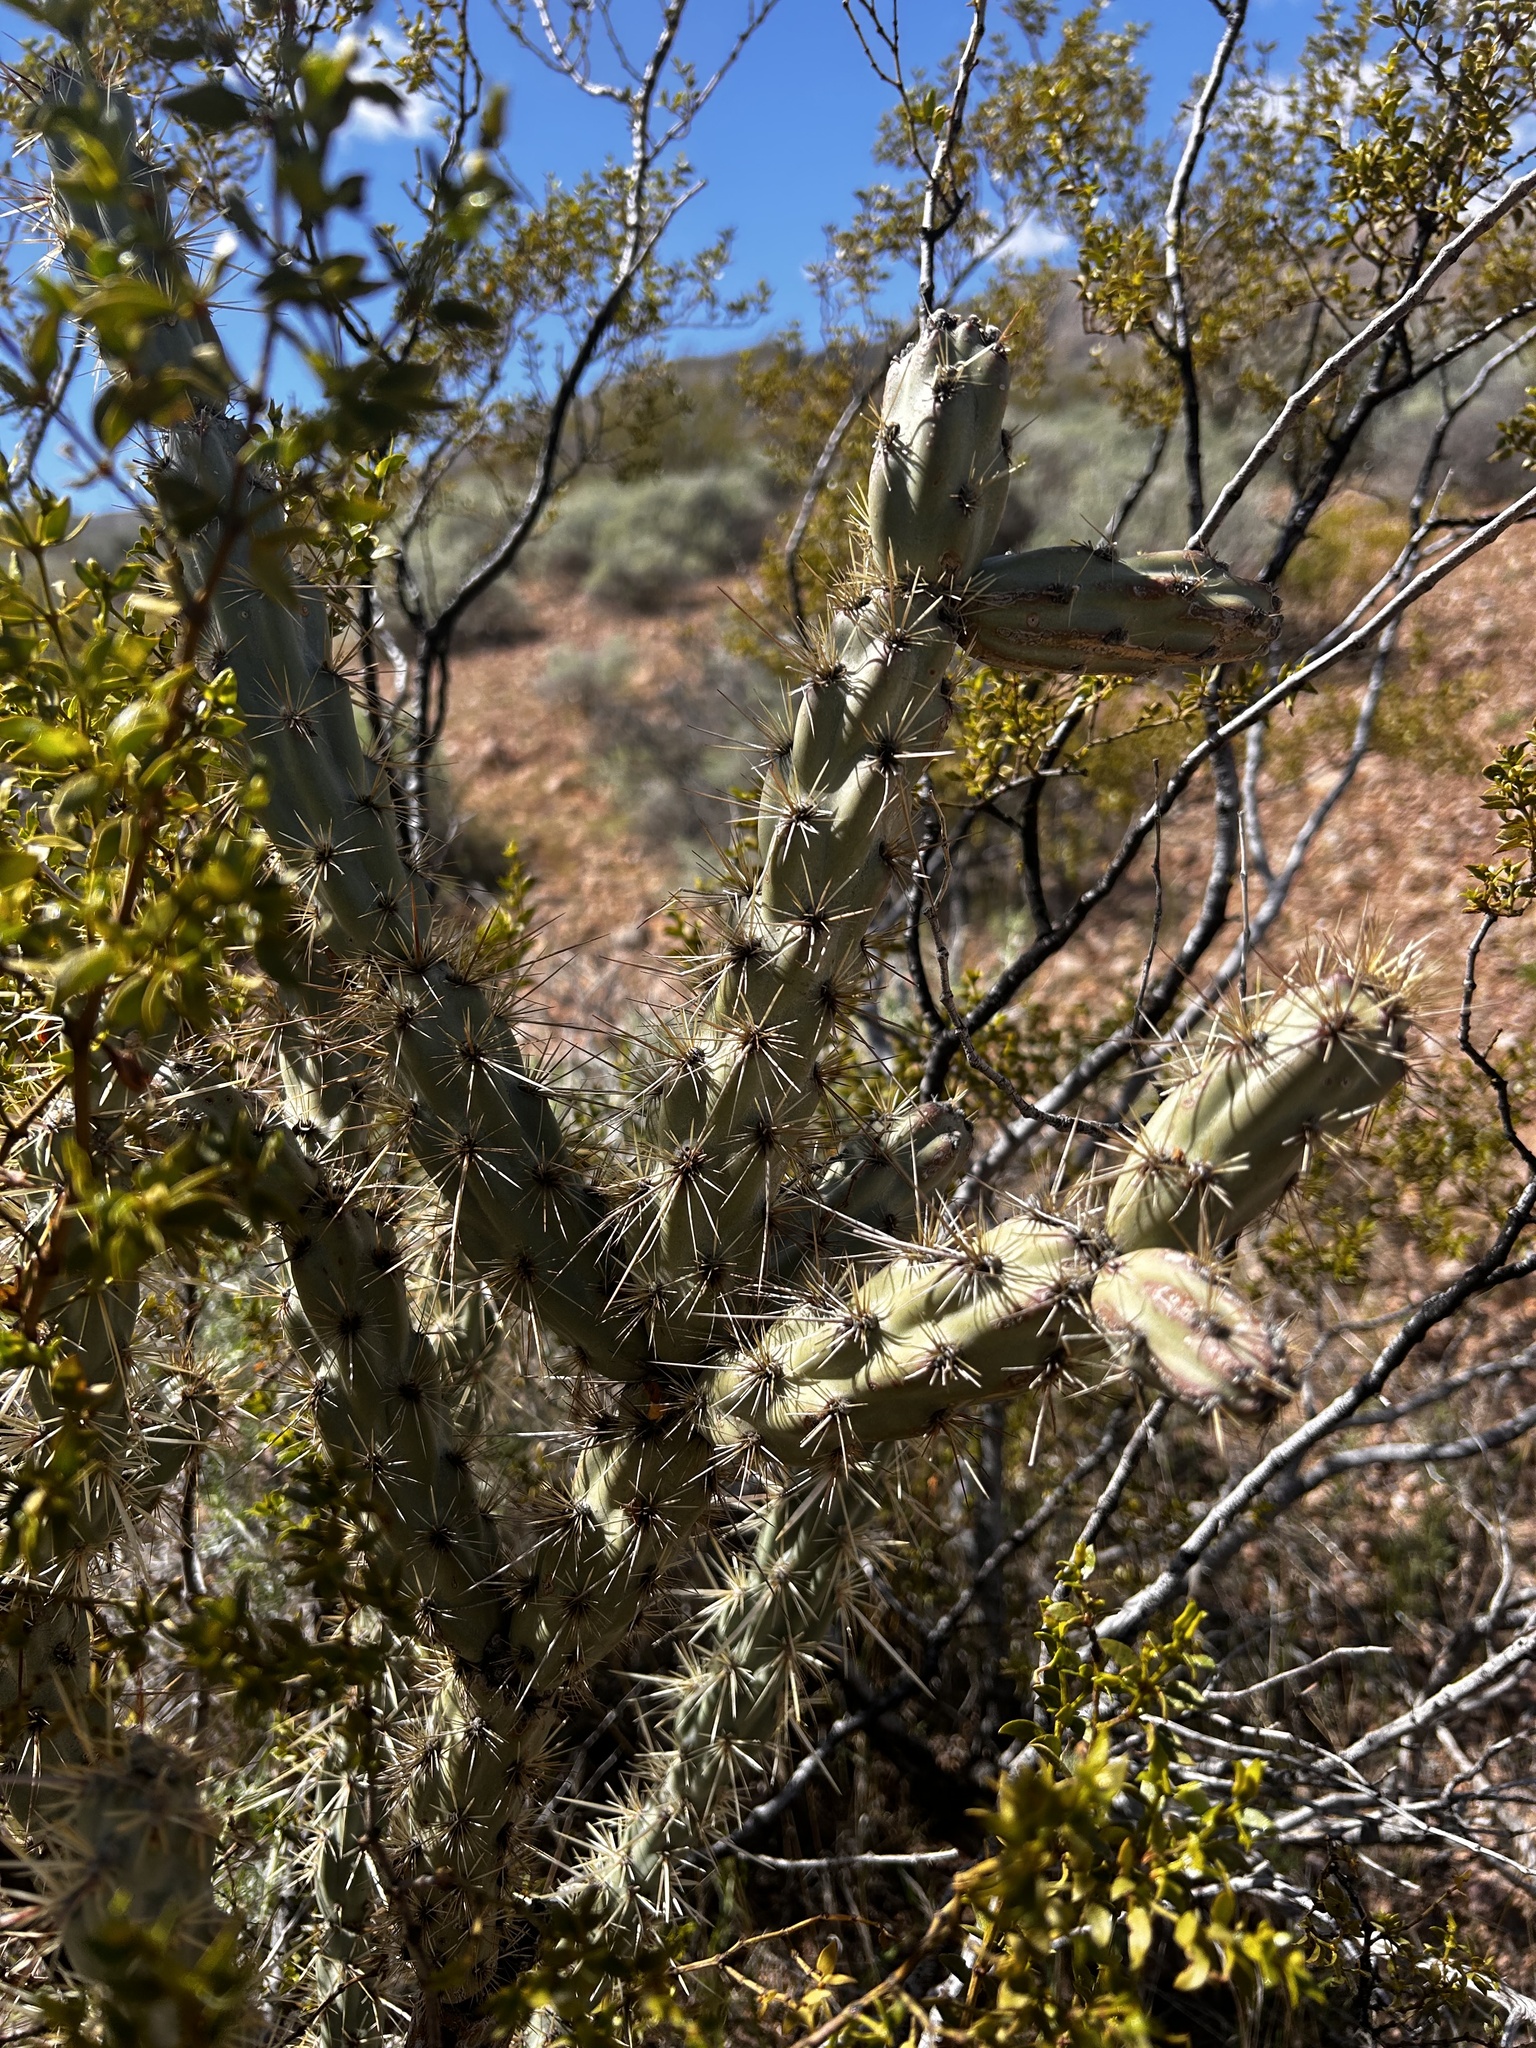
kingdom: Plantae
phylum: Tracheophyta
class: Magnoliopsida
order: Caryophyllales
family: Cactaceae
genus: Cylindropuntia
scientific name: Cylindropuntia acanthocarpa
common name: Buckhorn cholla
